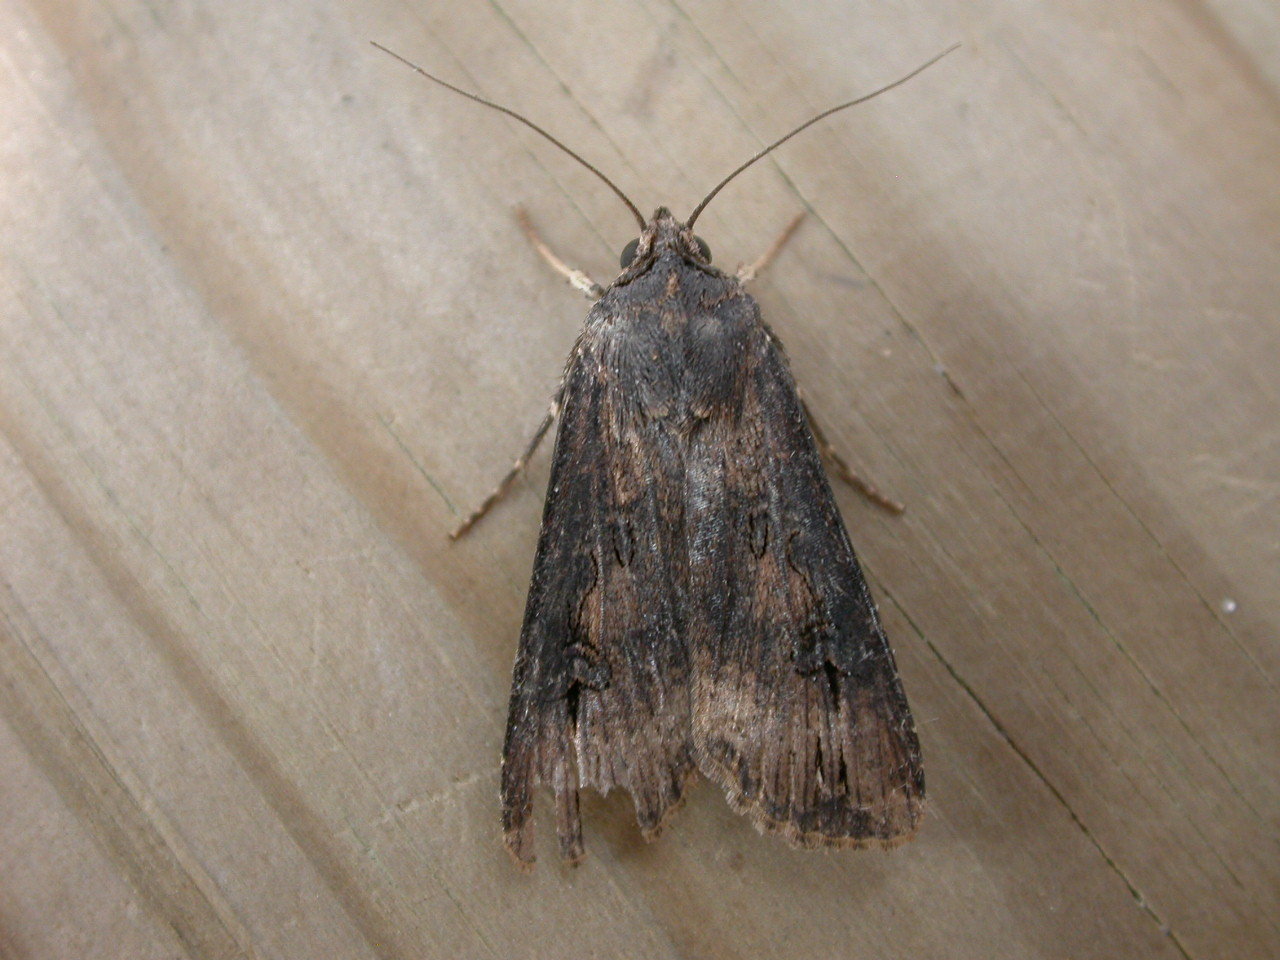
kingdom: Animalia
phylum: Arthropoda
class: Insecta
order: Lepidoptera
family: Noctuidae
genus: Agrotis
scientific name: Agrotis ipsilon
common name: Dark sword-grass
